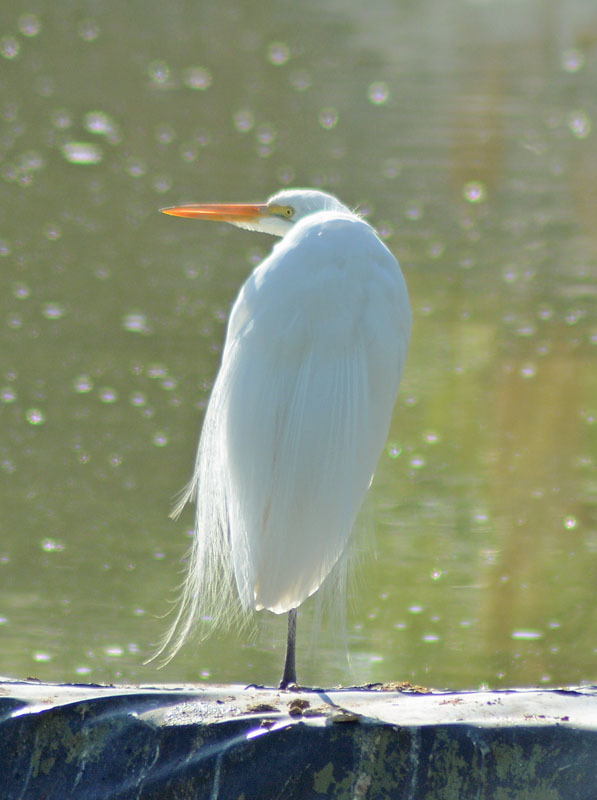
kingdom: Animalia
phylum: Chordata
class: Aves
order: Pelecaniformes
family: Ardeidae
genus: Ardea
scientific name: Ardea alba
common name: Great egret
